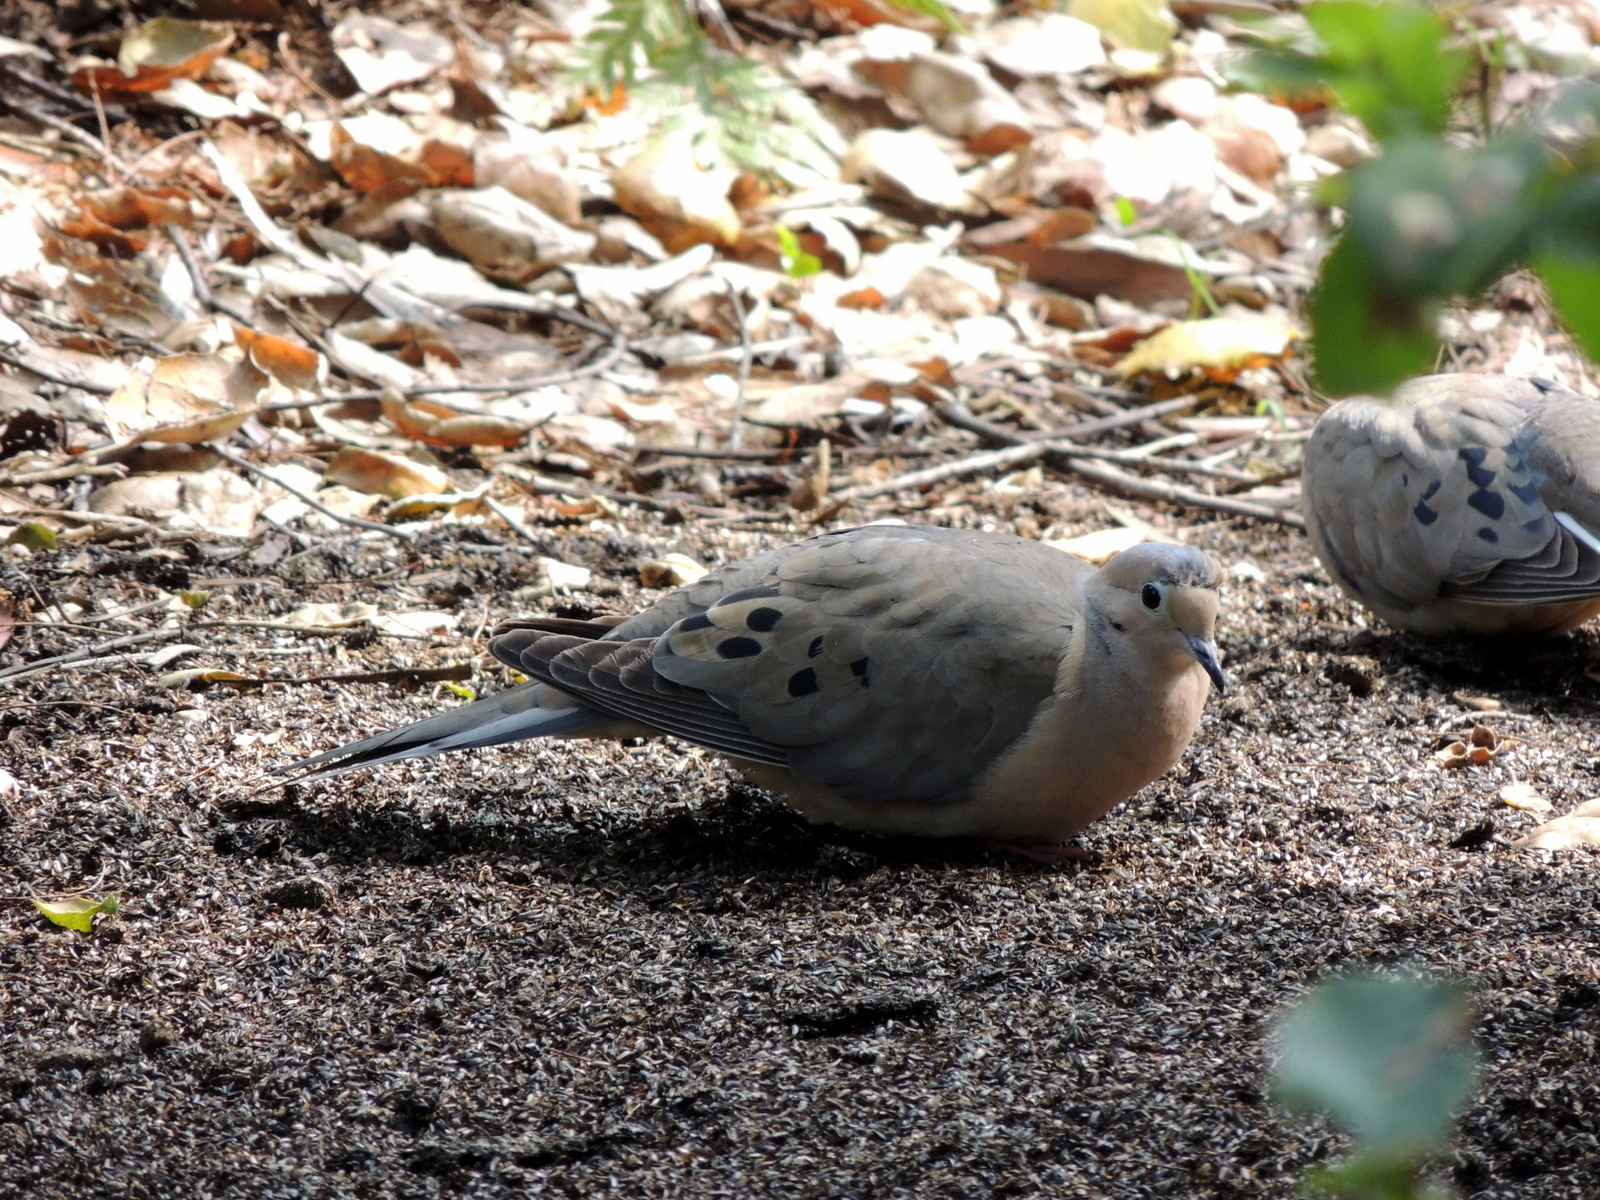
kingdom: Animalia
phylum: Chordata
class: Aves
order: Columbiformes
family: Columbidae
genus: Zenaida
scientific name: Zenaida macroura
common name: Mourning dove
